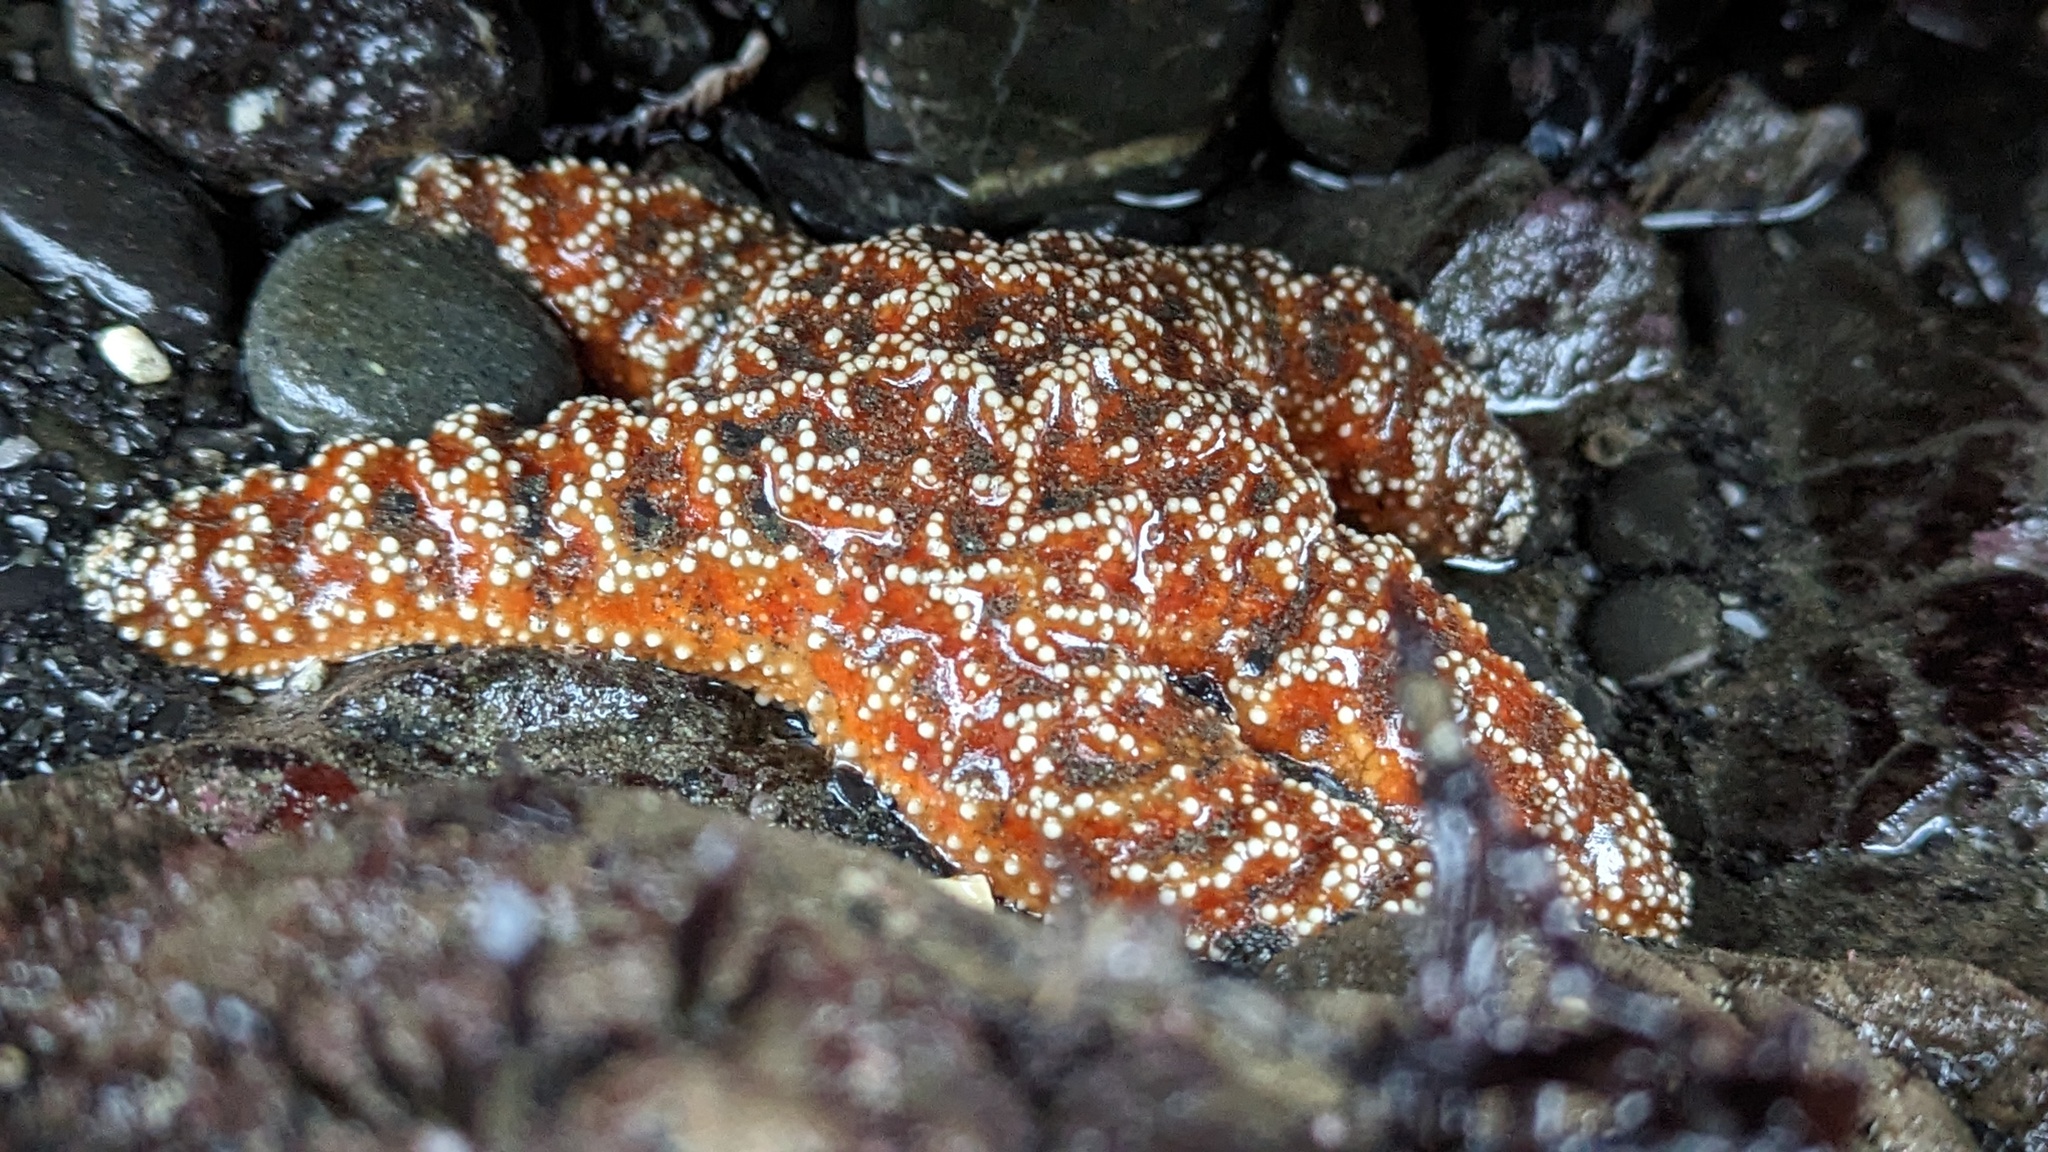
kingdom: Animalia
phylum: Echinodermata
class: Asteroidea
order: Forcipulatida
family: Asteriidae
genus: Pisaster
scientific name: Pisaster ochraceus
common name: Ochre stars
